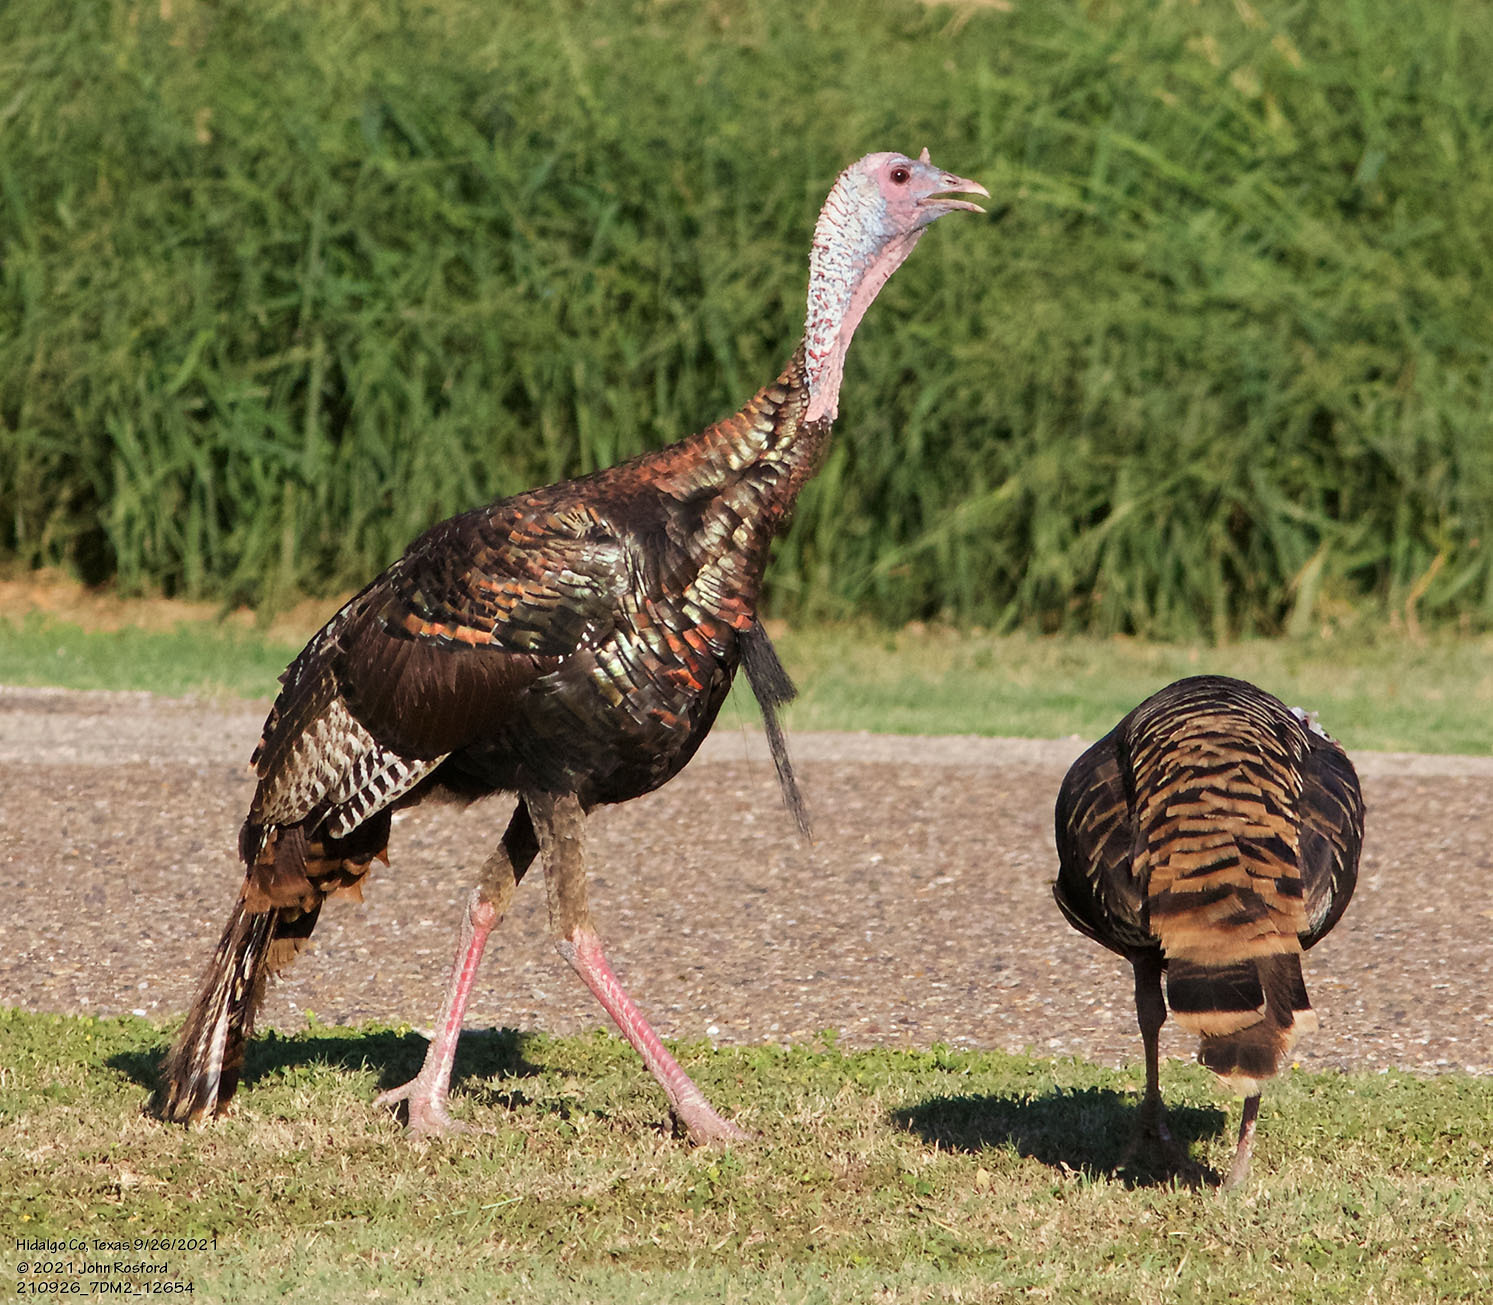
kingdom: Animalia
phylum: Chordata
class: Aves
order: Galliformes
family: Phasianidae
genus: Meleagris
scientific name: Meleagris gallopavo
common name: Wild turkey
